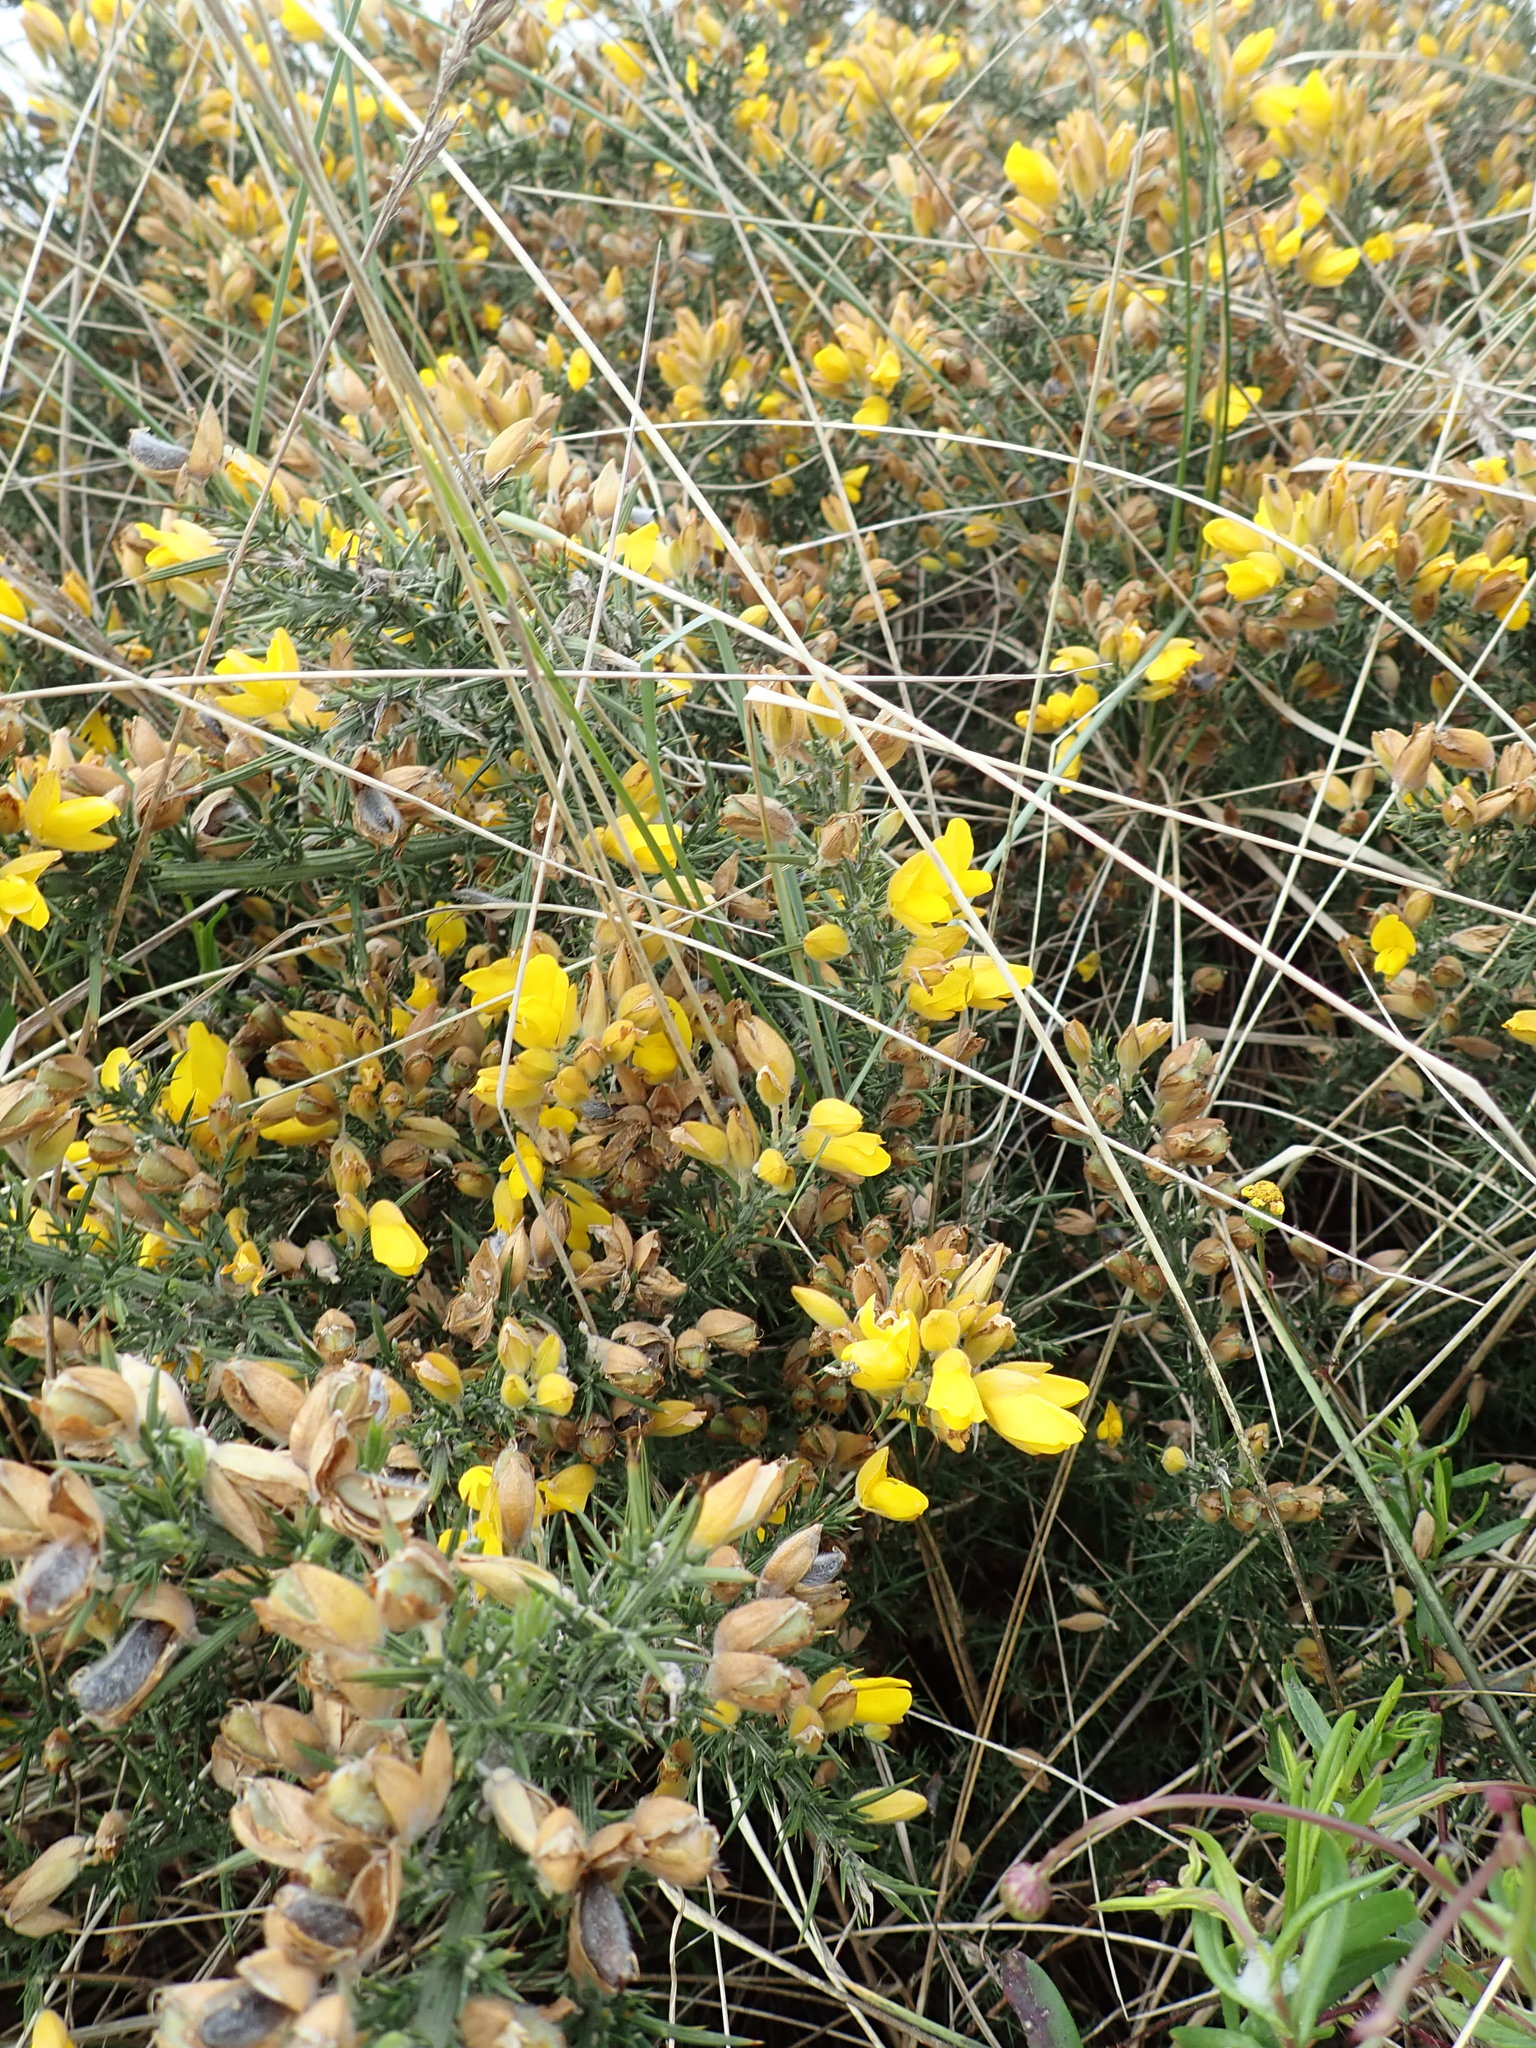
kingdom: Plantae
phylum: Tracheophyta
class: Magnoliopsida
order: Fabales
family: Fabaceae
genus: Ulex
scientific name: Ulex europaeus
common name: Common gorse
